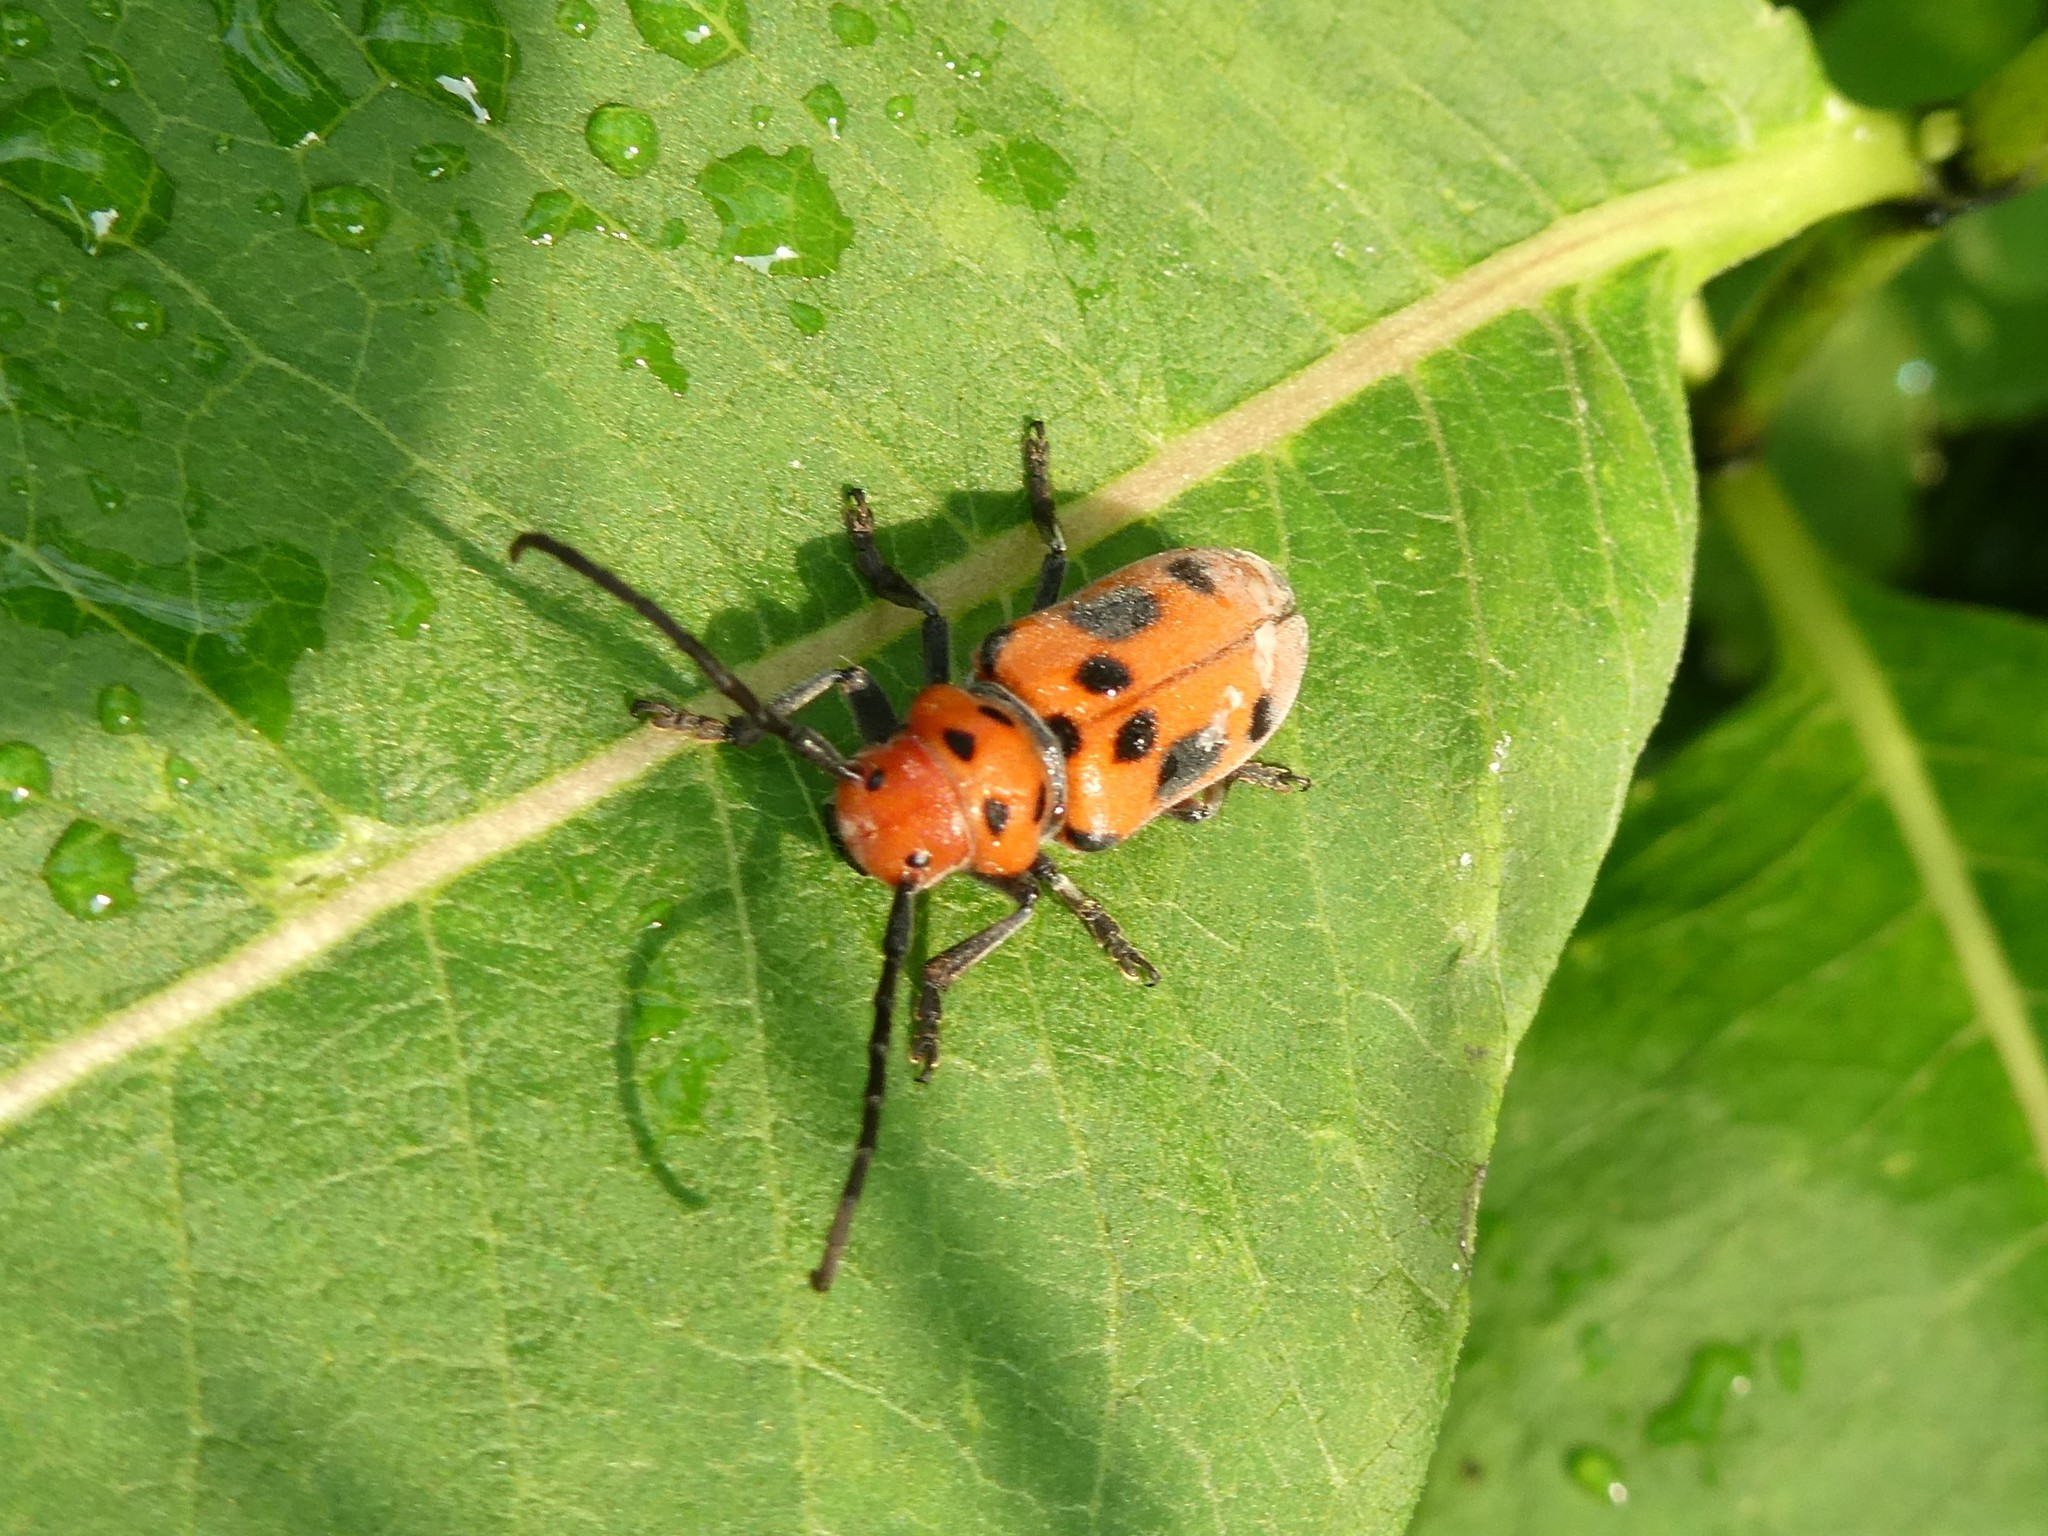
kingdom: Animalia
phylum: Arthropoda
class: Insecta
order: Coleoptera
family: Cerambycidae
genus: Tetraopes
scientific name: Tetraopes tetrophthalmus
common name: Red milkweed beetle
